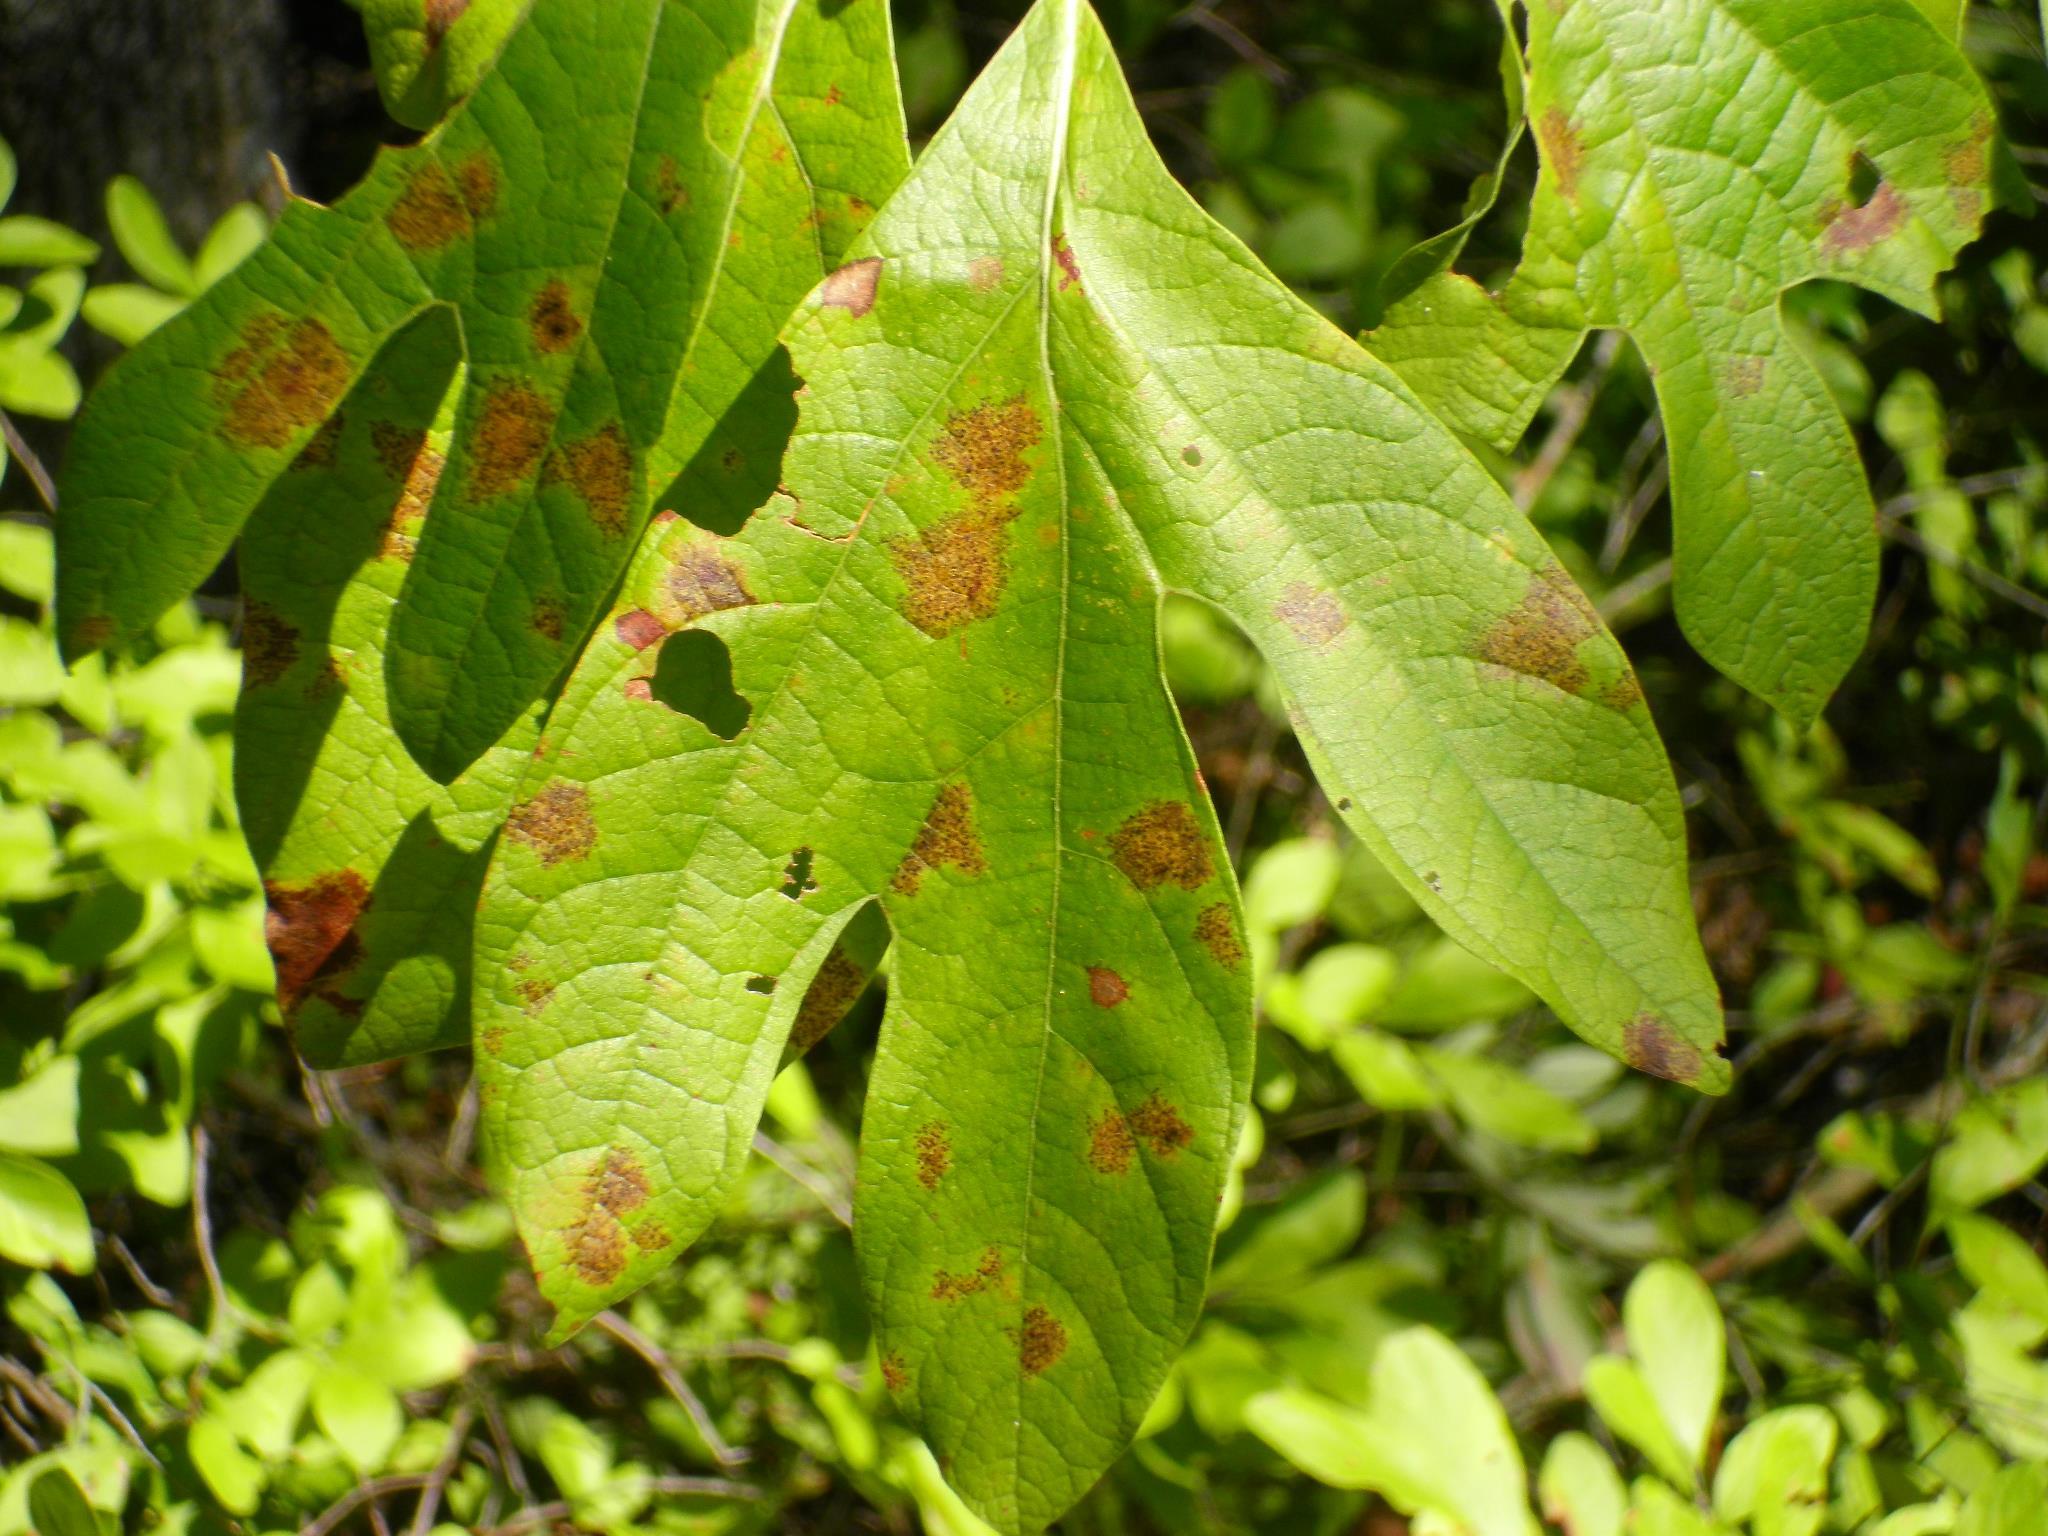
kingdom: Plantae
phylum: Tracheophyta
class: Magnoliopsida
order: Laurales
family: Lauraceae
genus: Sassafras
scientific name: Sassafras albidum
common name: Sassafras
